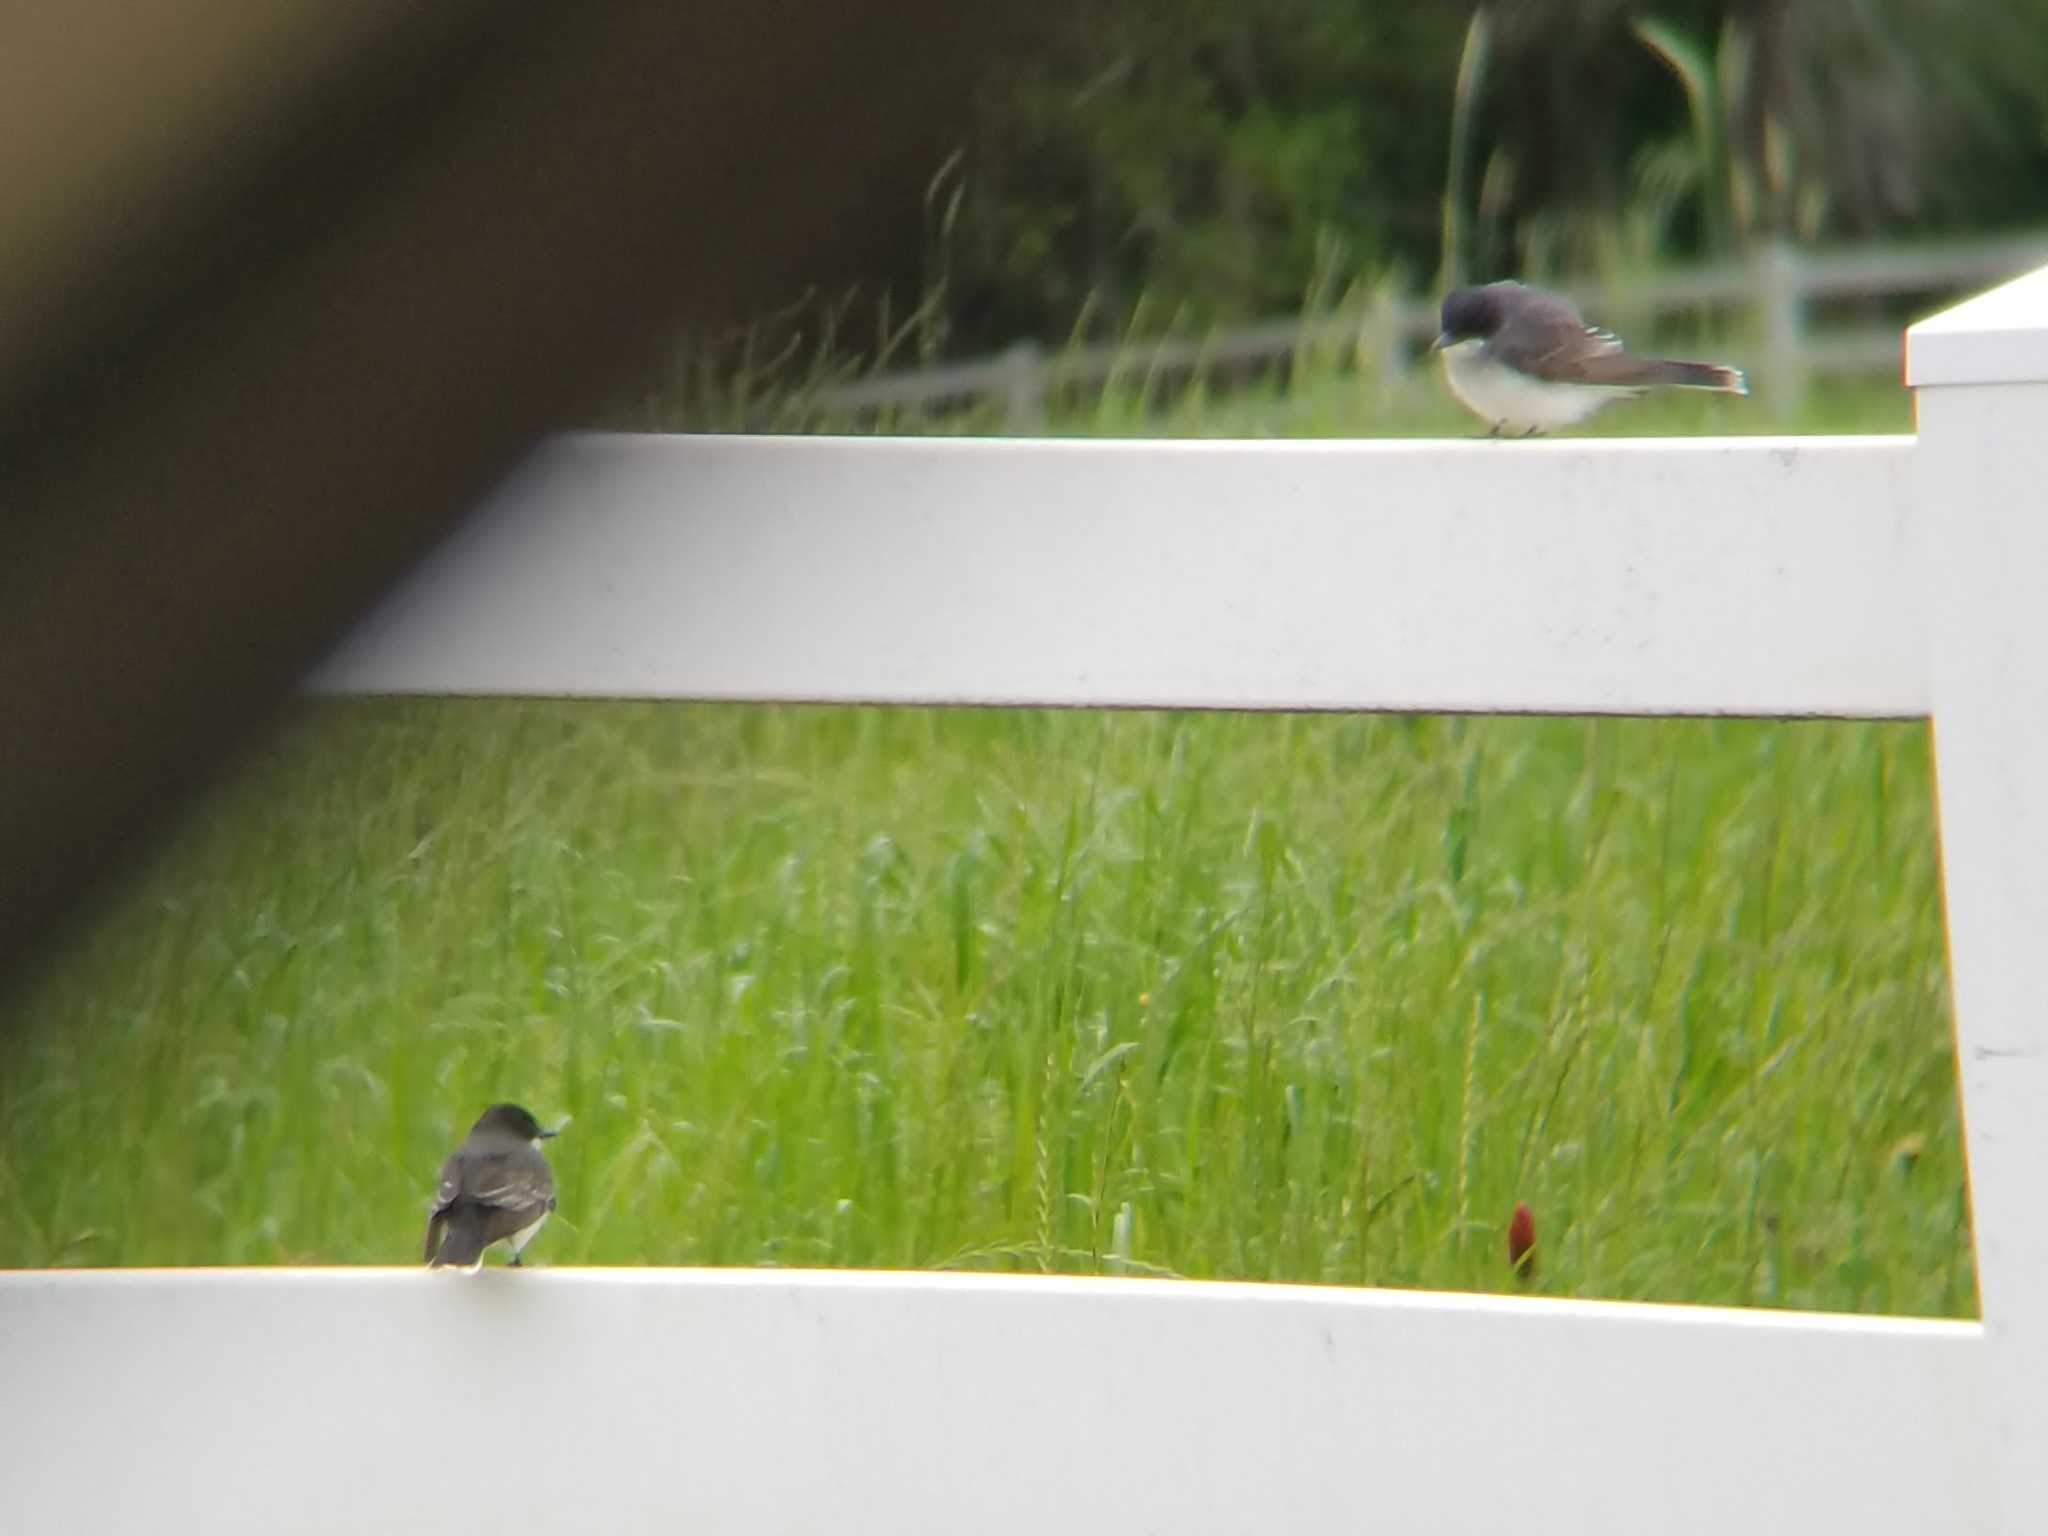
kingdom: Animalia
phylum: Chordata
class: Aves
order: Passeriformes
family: Tyrannidae
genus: Tyrannus
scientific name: Tyrannus tyrannus
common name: Eastern kingbird
